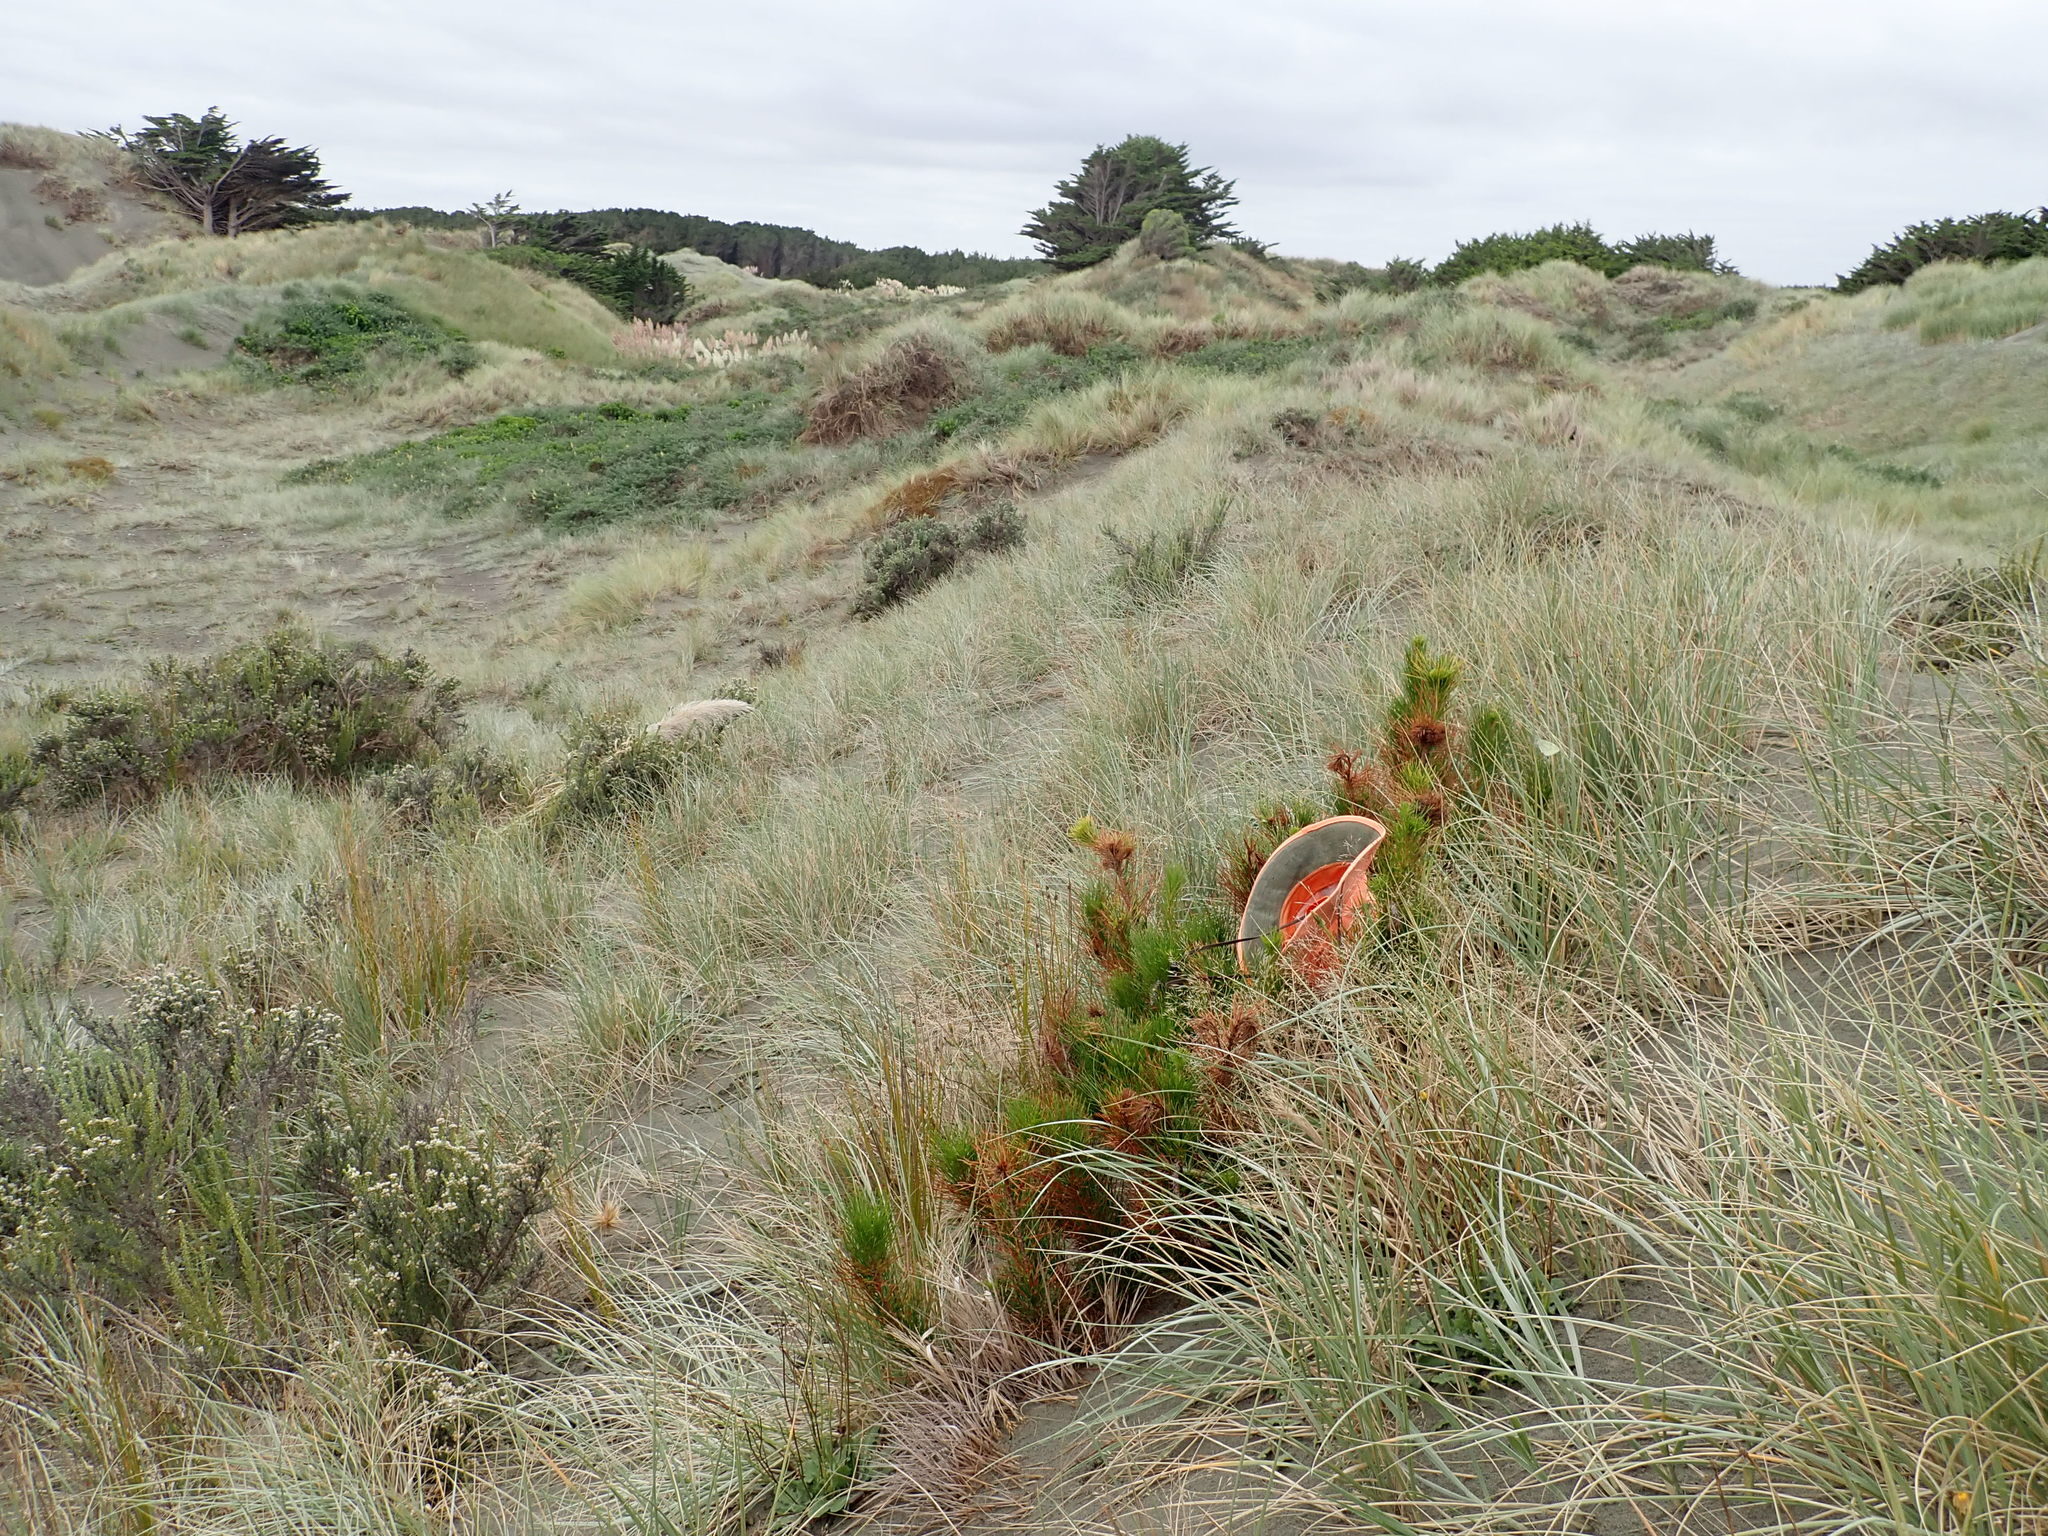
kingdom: Plantae
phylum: Tracheophyta
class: Pinopsida
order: Pinales
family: Pinaceae
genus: Pinus
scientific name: Pinus radiata
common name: Monterey pine
